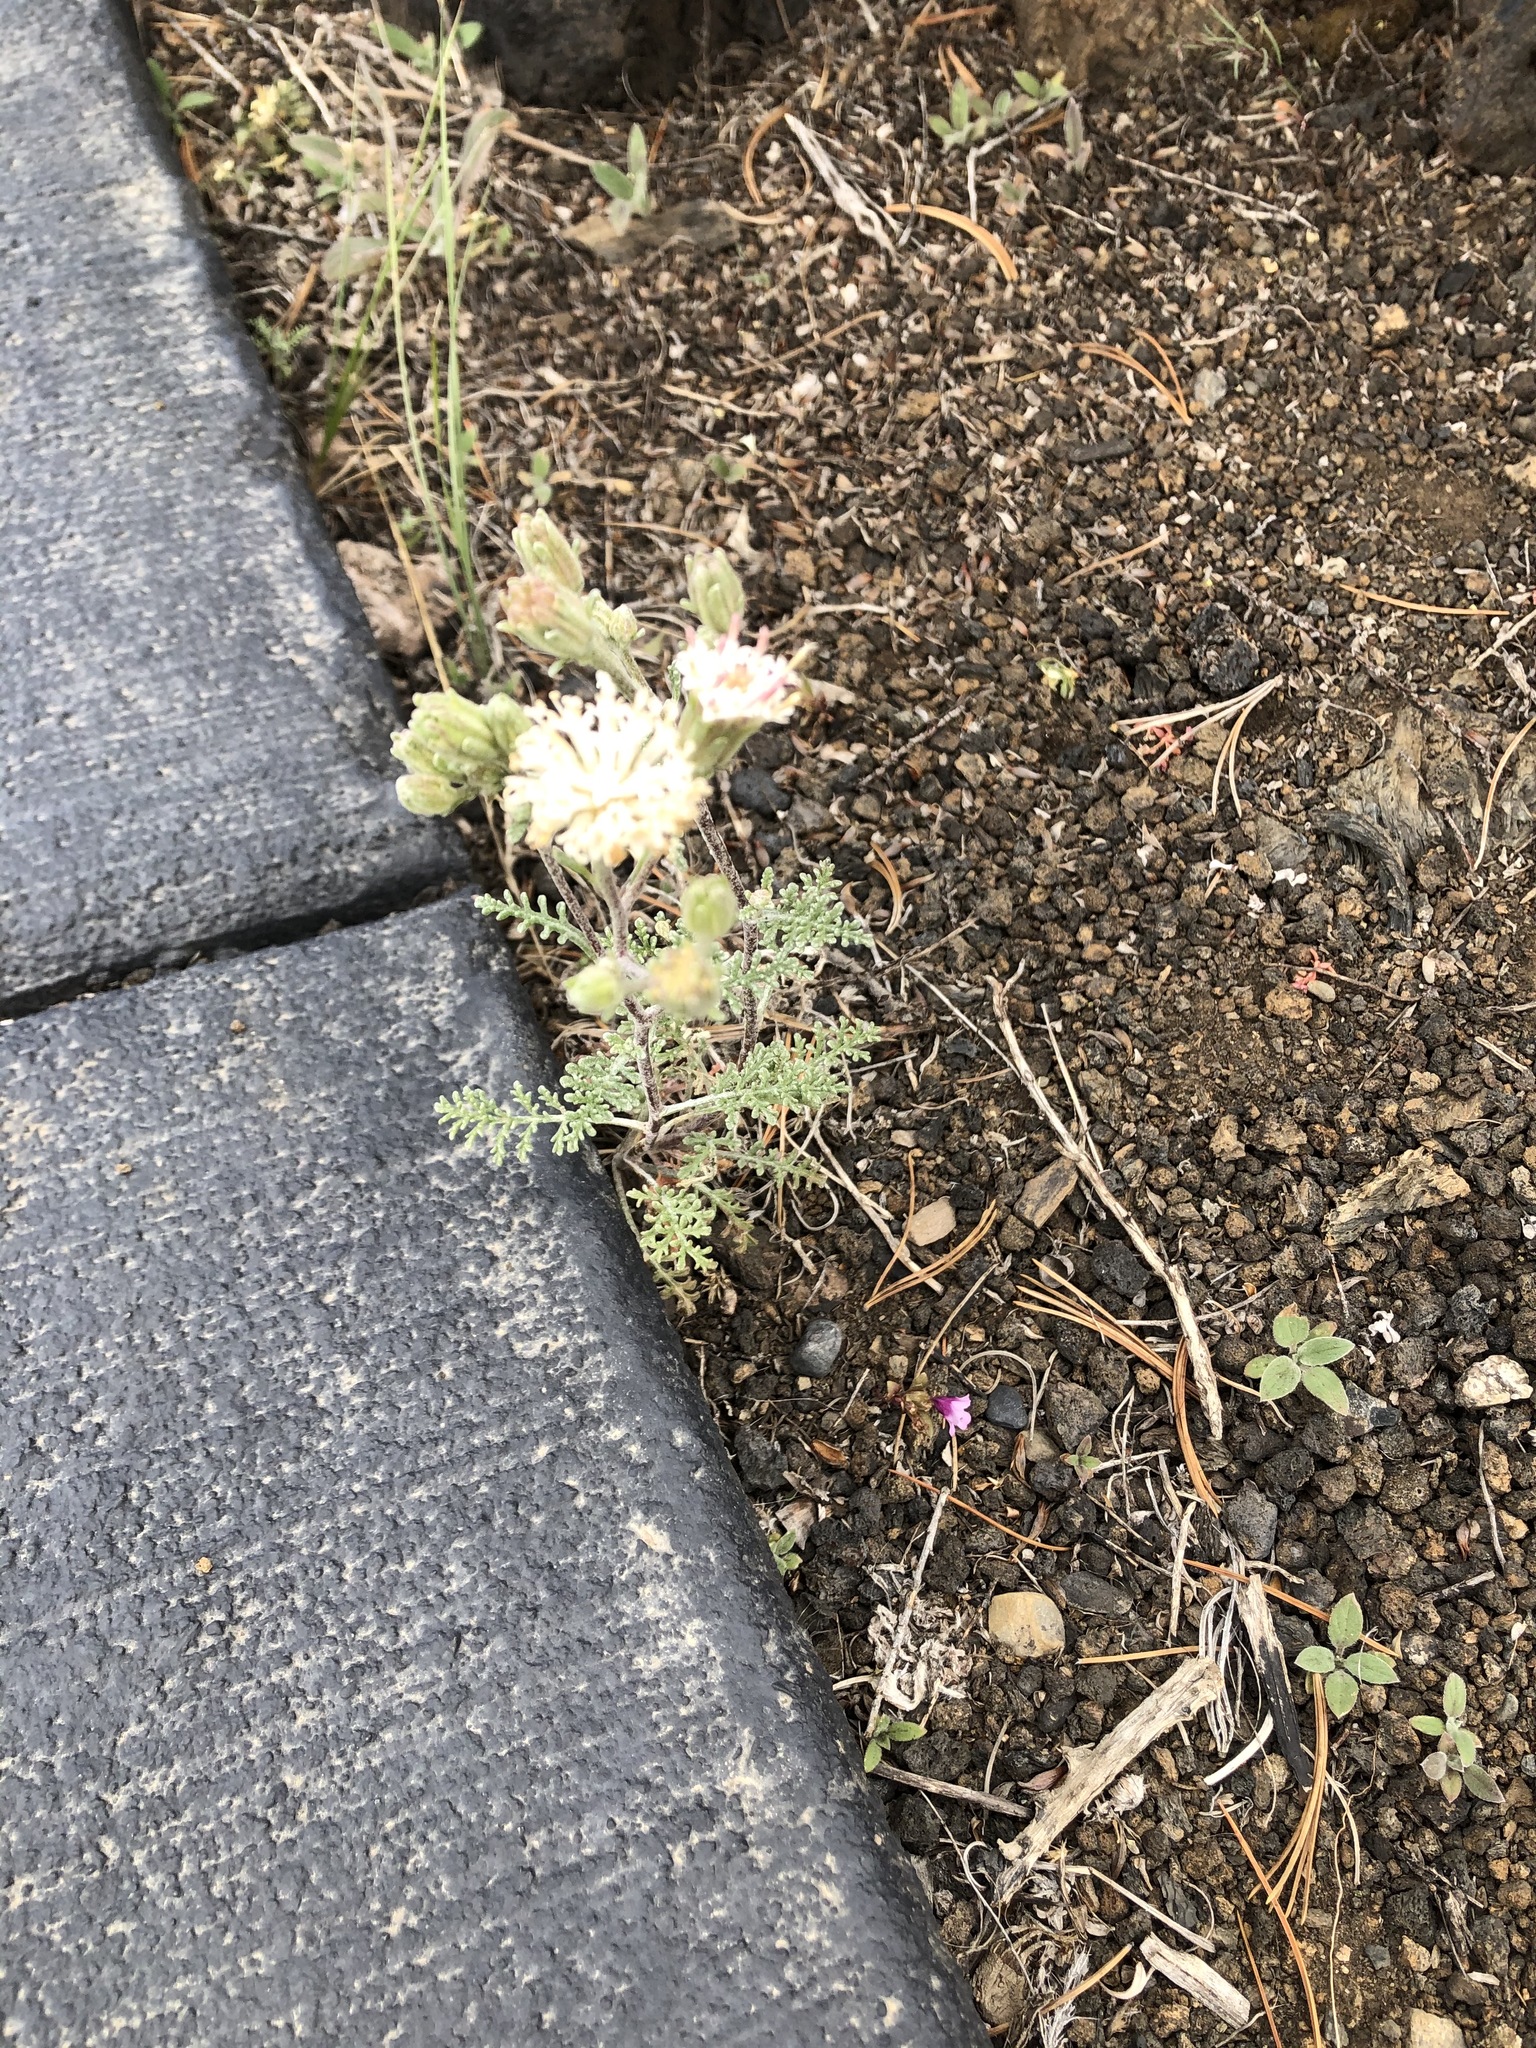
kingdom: Plantae
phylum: Tracheophyta
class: Magnoliopsida
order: Asterales
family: Asteraceae
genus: Chaenactis
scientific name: Chaenactis douglasii
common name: Hoary pincushion
